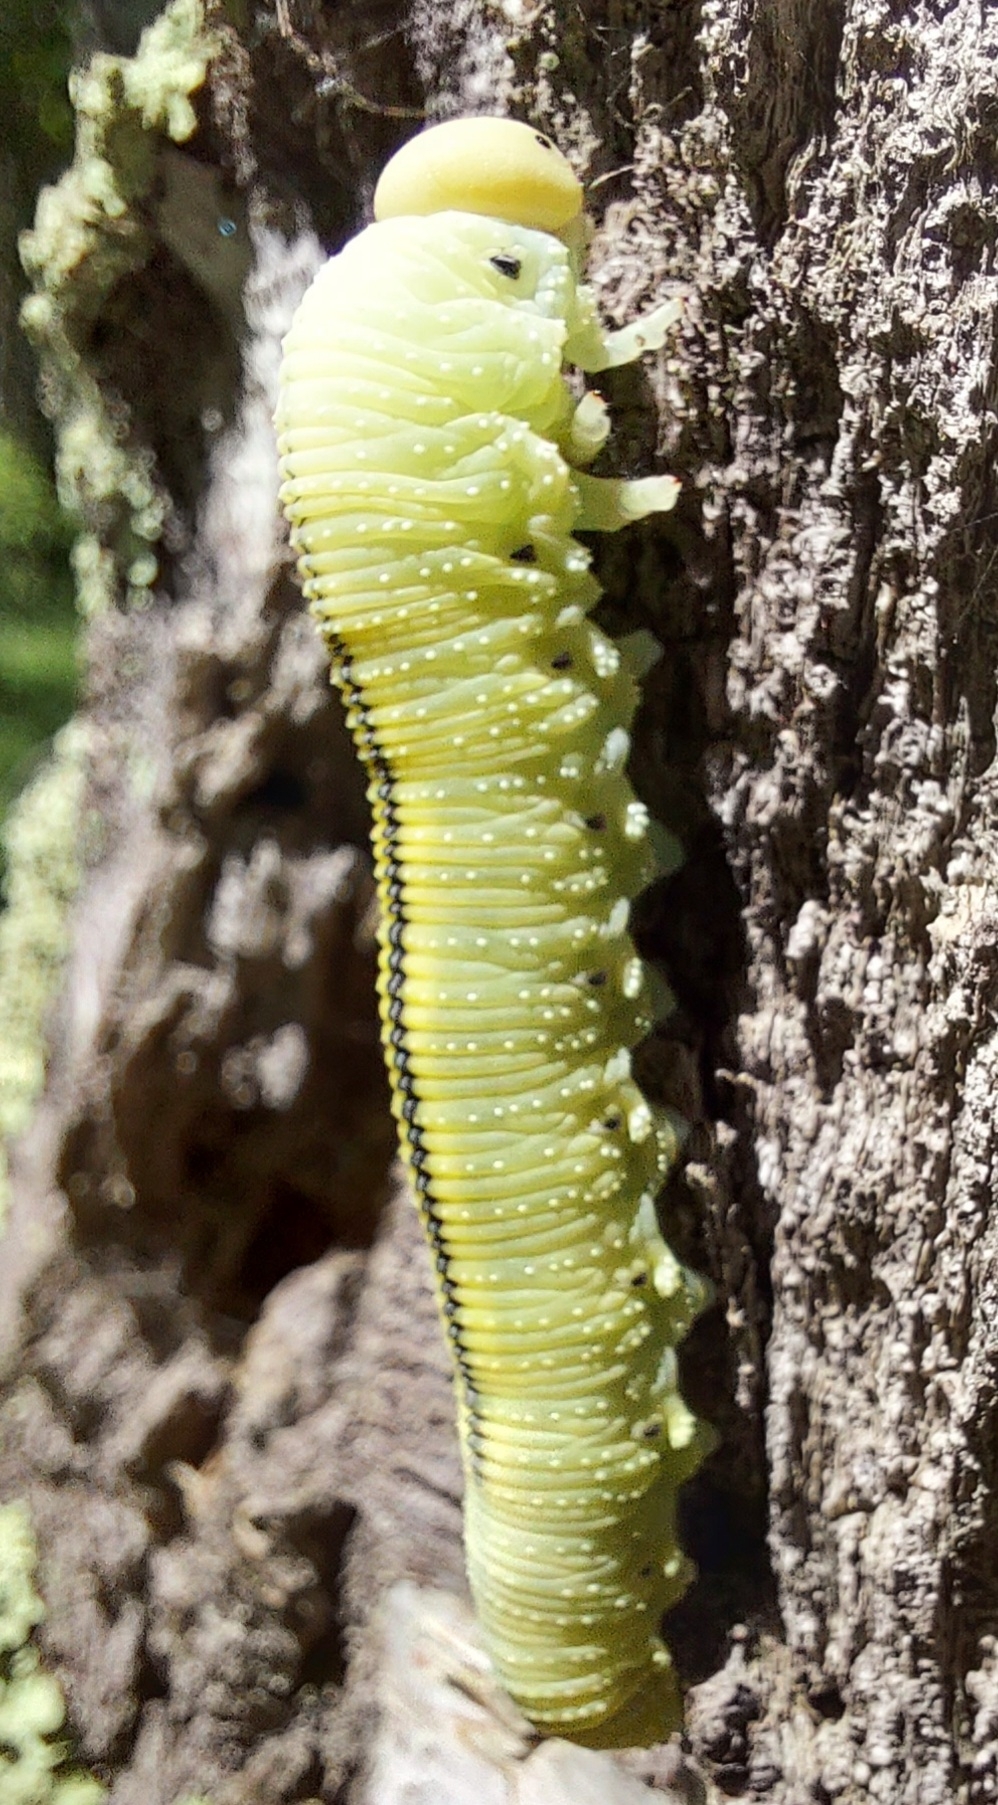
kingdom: Animalia
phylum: Arthropoda
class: Insecta
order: Hymenoptera
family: Cimbicidae
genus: Cimbex
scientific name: Cimbex femoratus
